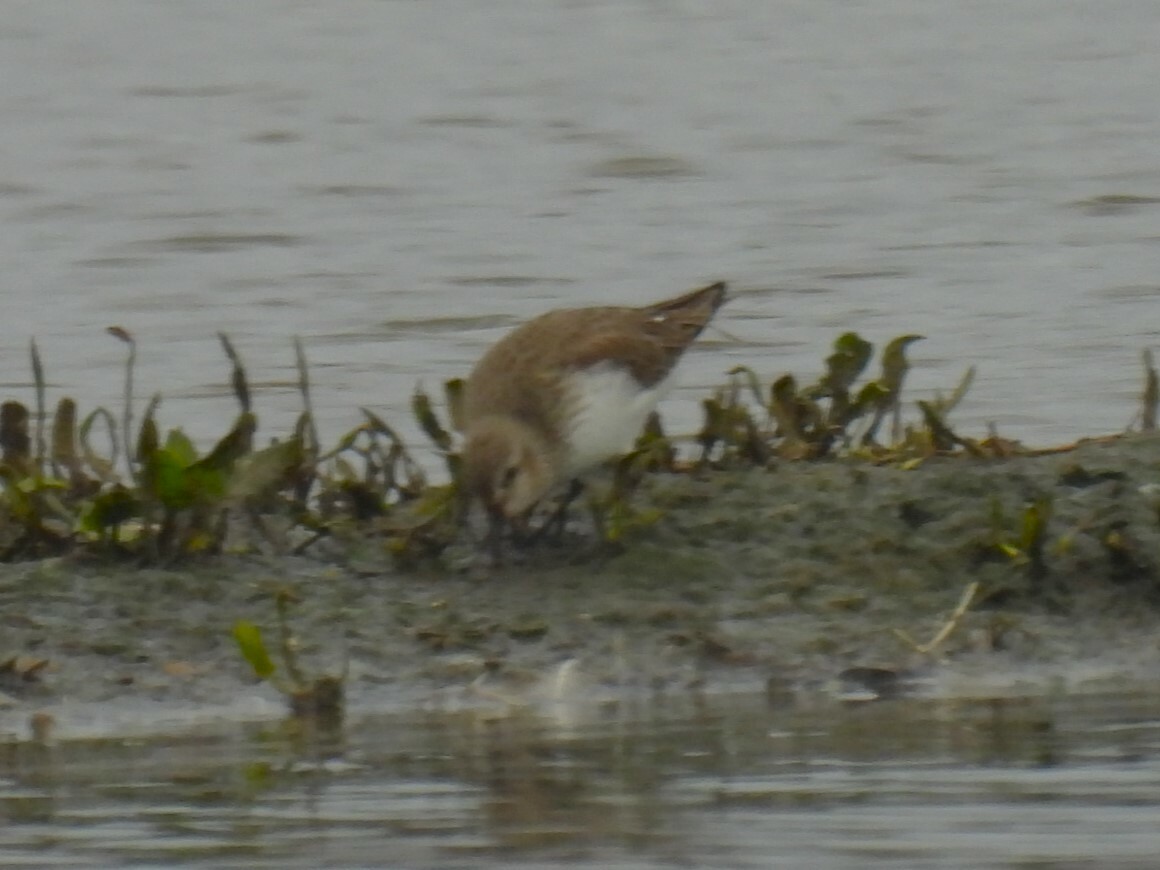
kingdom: Animalia
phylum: Chordata
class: Aves
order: Charadriiformes
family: Scolopacidae
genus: Calidris
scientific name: Calidris alpina
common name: Dunlin
